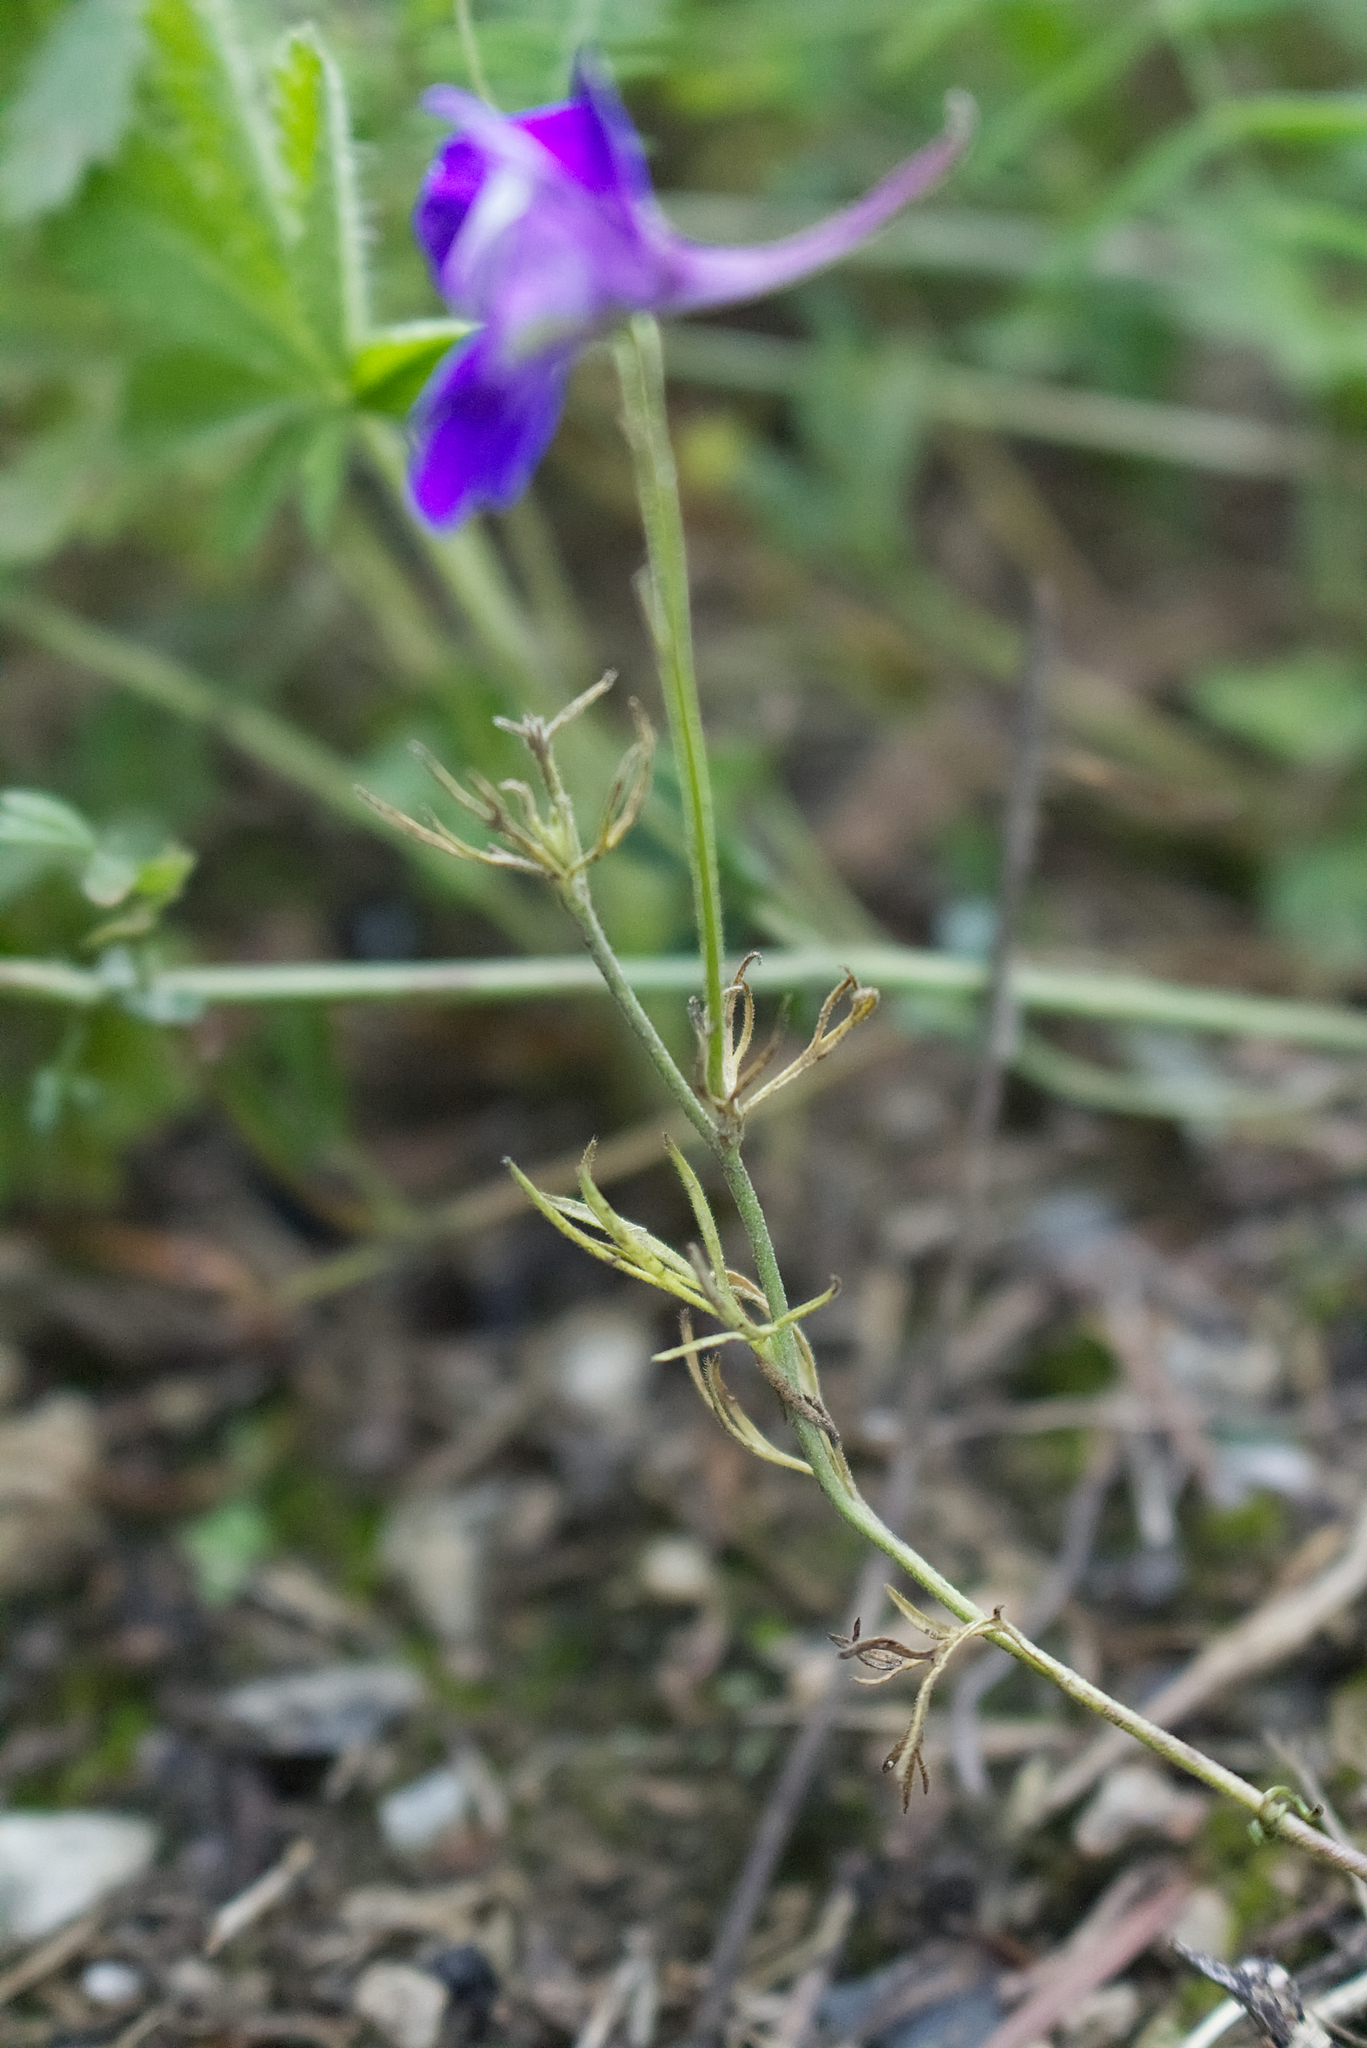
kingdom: Plantae
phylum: Tracheophyta
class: Magnoliopsida
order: Ranunculales
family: Ranunculaceae
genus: Delphinium
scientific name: Delphinium consolida
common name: Branching larkspur
